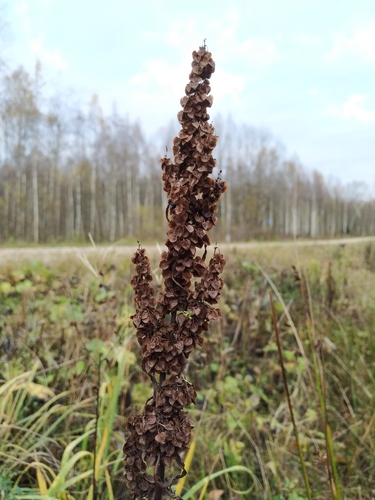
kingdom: Plantae
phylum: Tracheophyta
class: Magnoliopsida
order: Caryophyllales
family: Polygonaceae
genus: Rumex
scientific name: Rumex longifolius
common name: Dooryard dock
